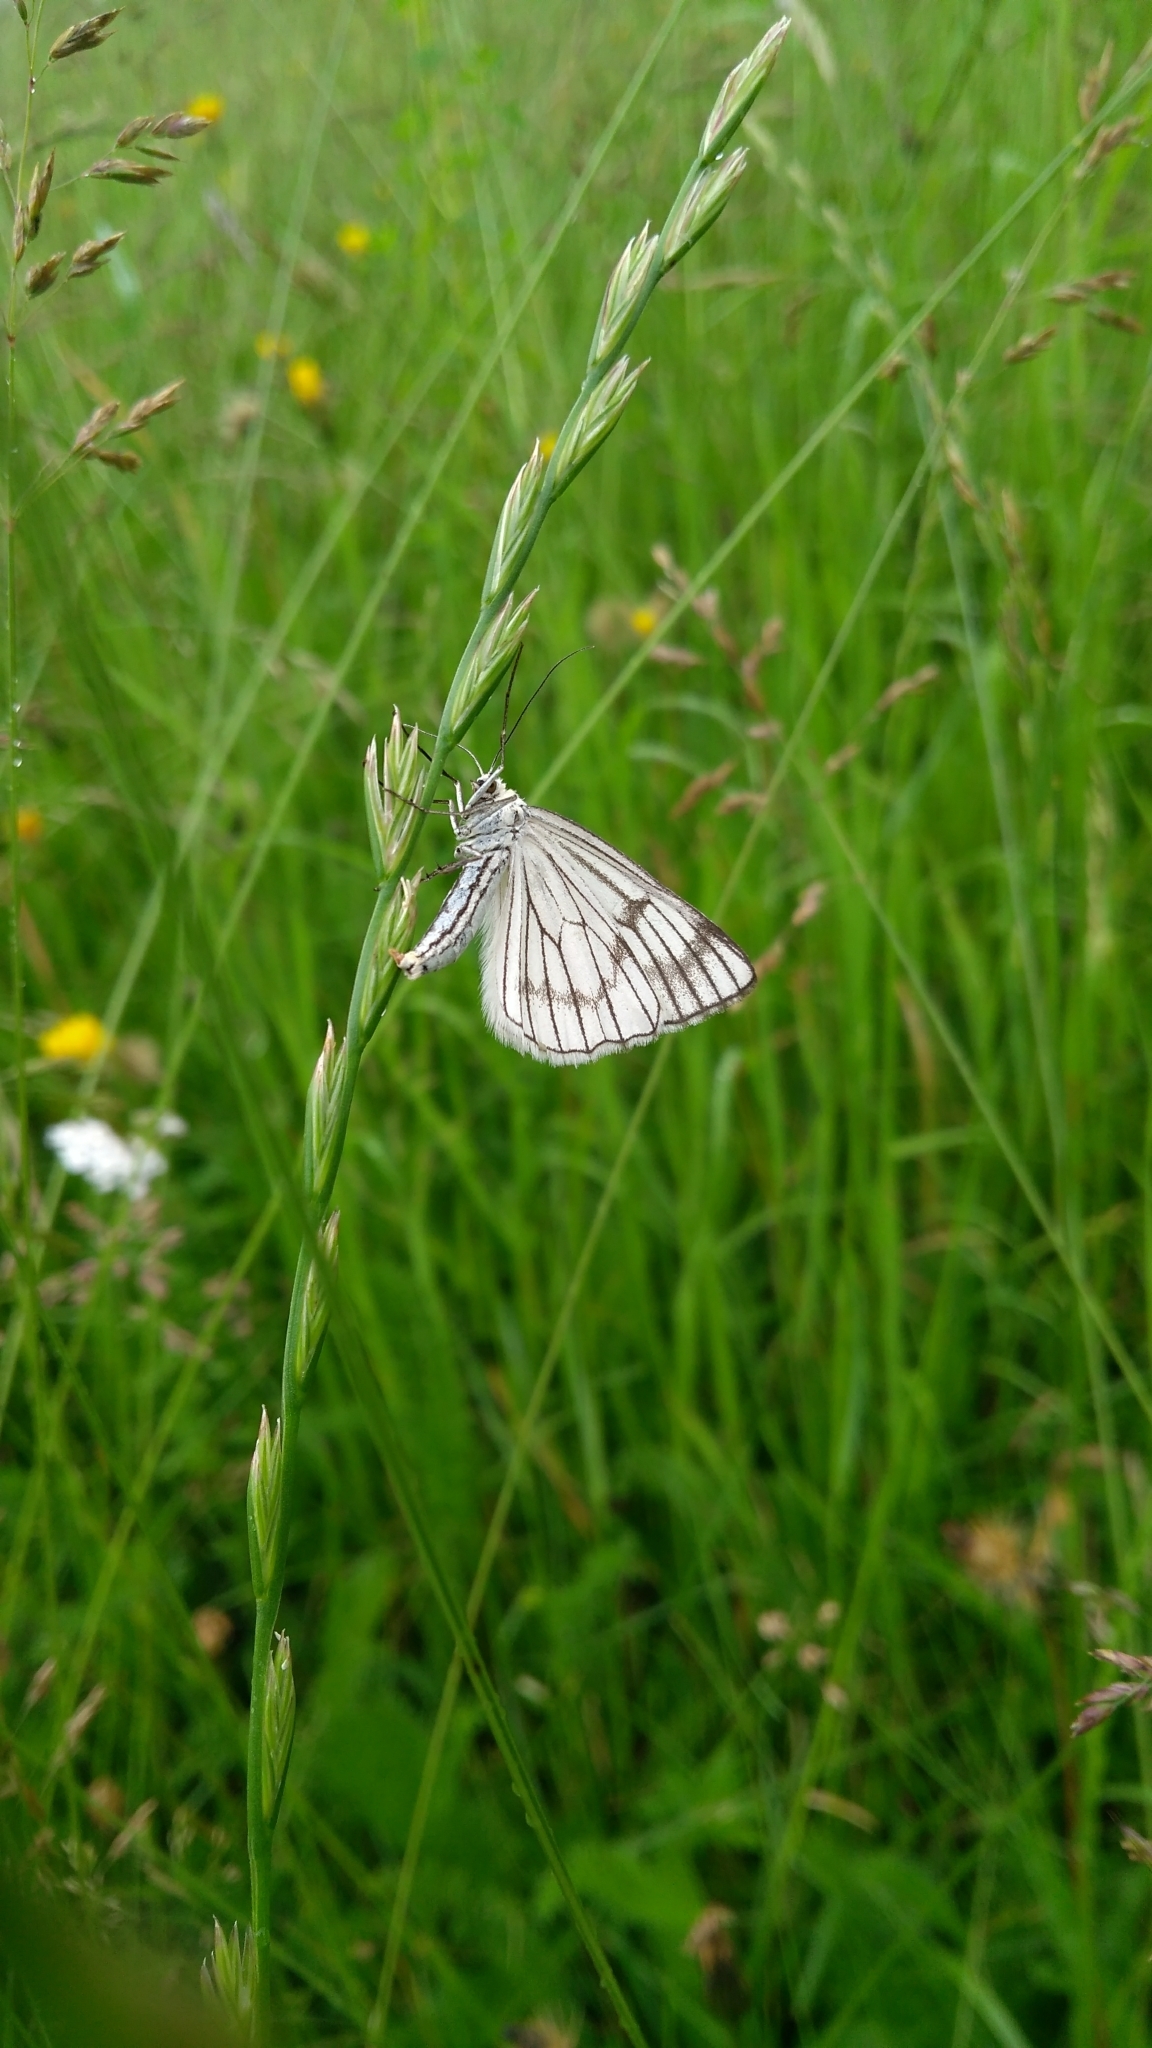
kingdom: Animalia
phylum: Arthropoda
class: Insecta
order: Lepidoptera
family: Geometridae
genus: Siona
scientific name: Siona lineata
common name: Black-veined moth
